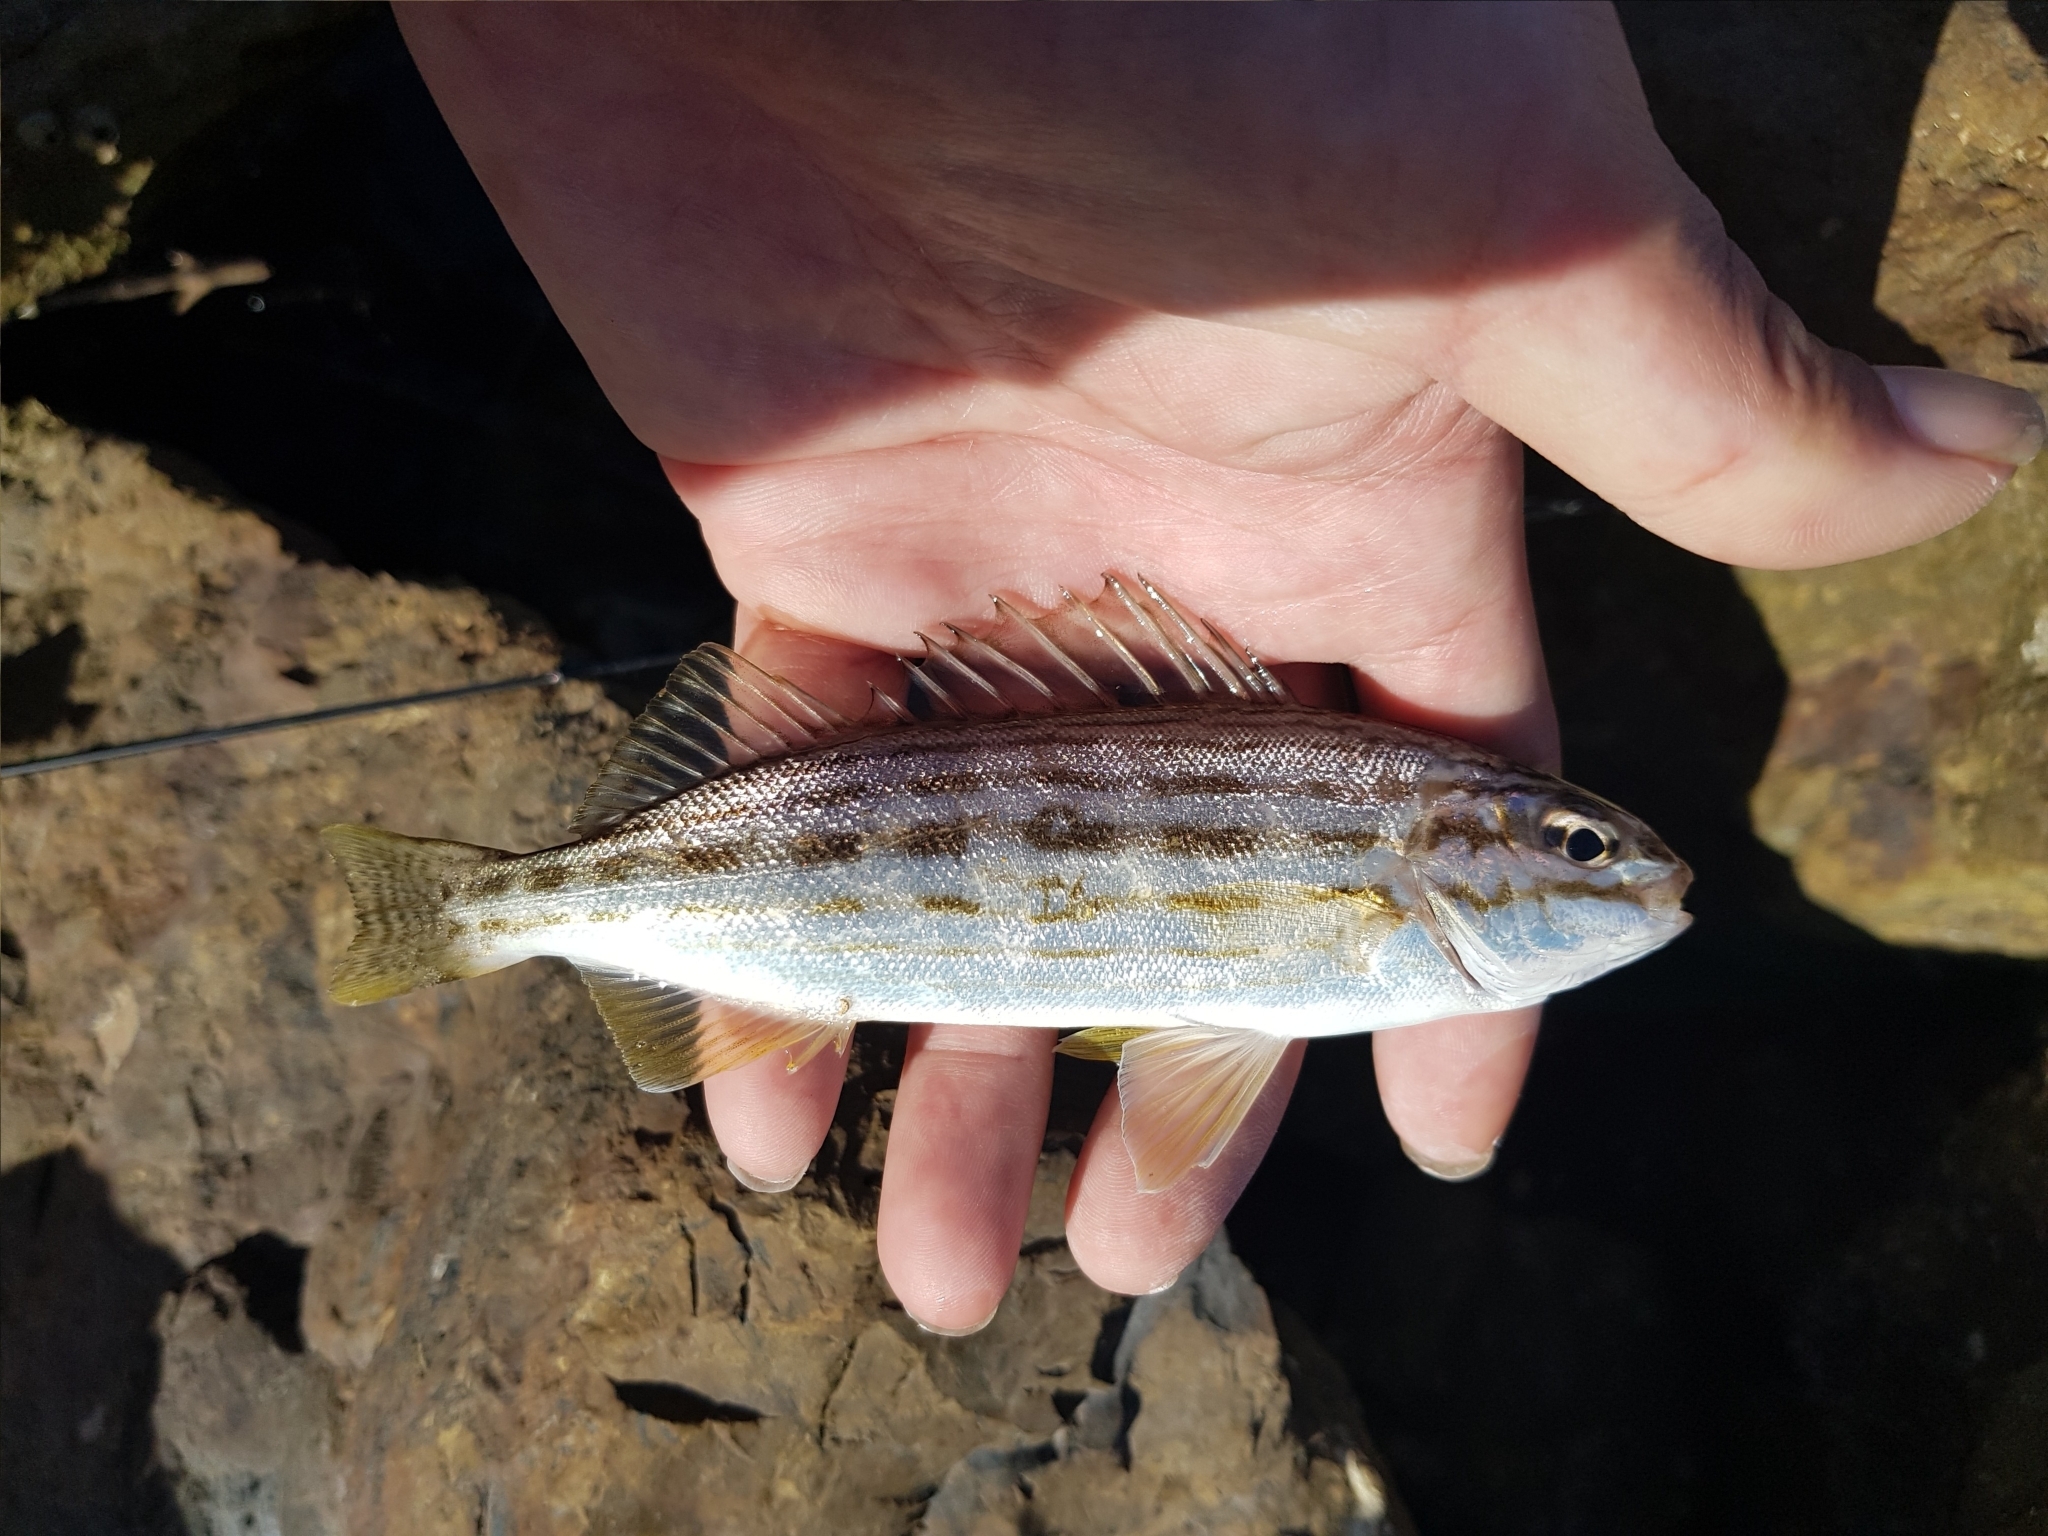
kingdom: Animalia
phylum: Chordata
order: Perciformes
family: Terapontidae
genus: Pelates
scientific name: Pelates octolineatus
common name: Eight-lined trumpeter
